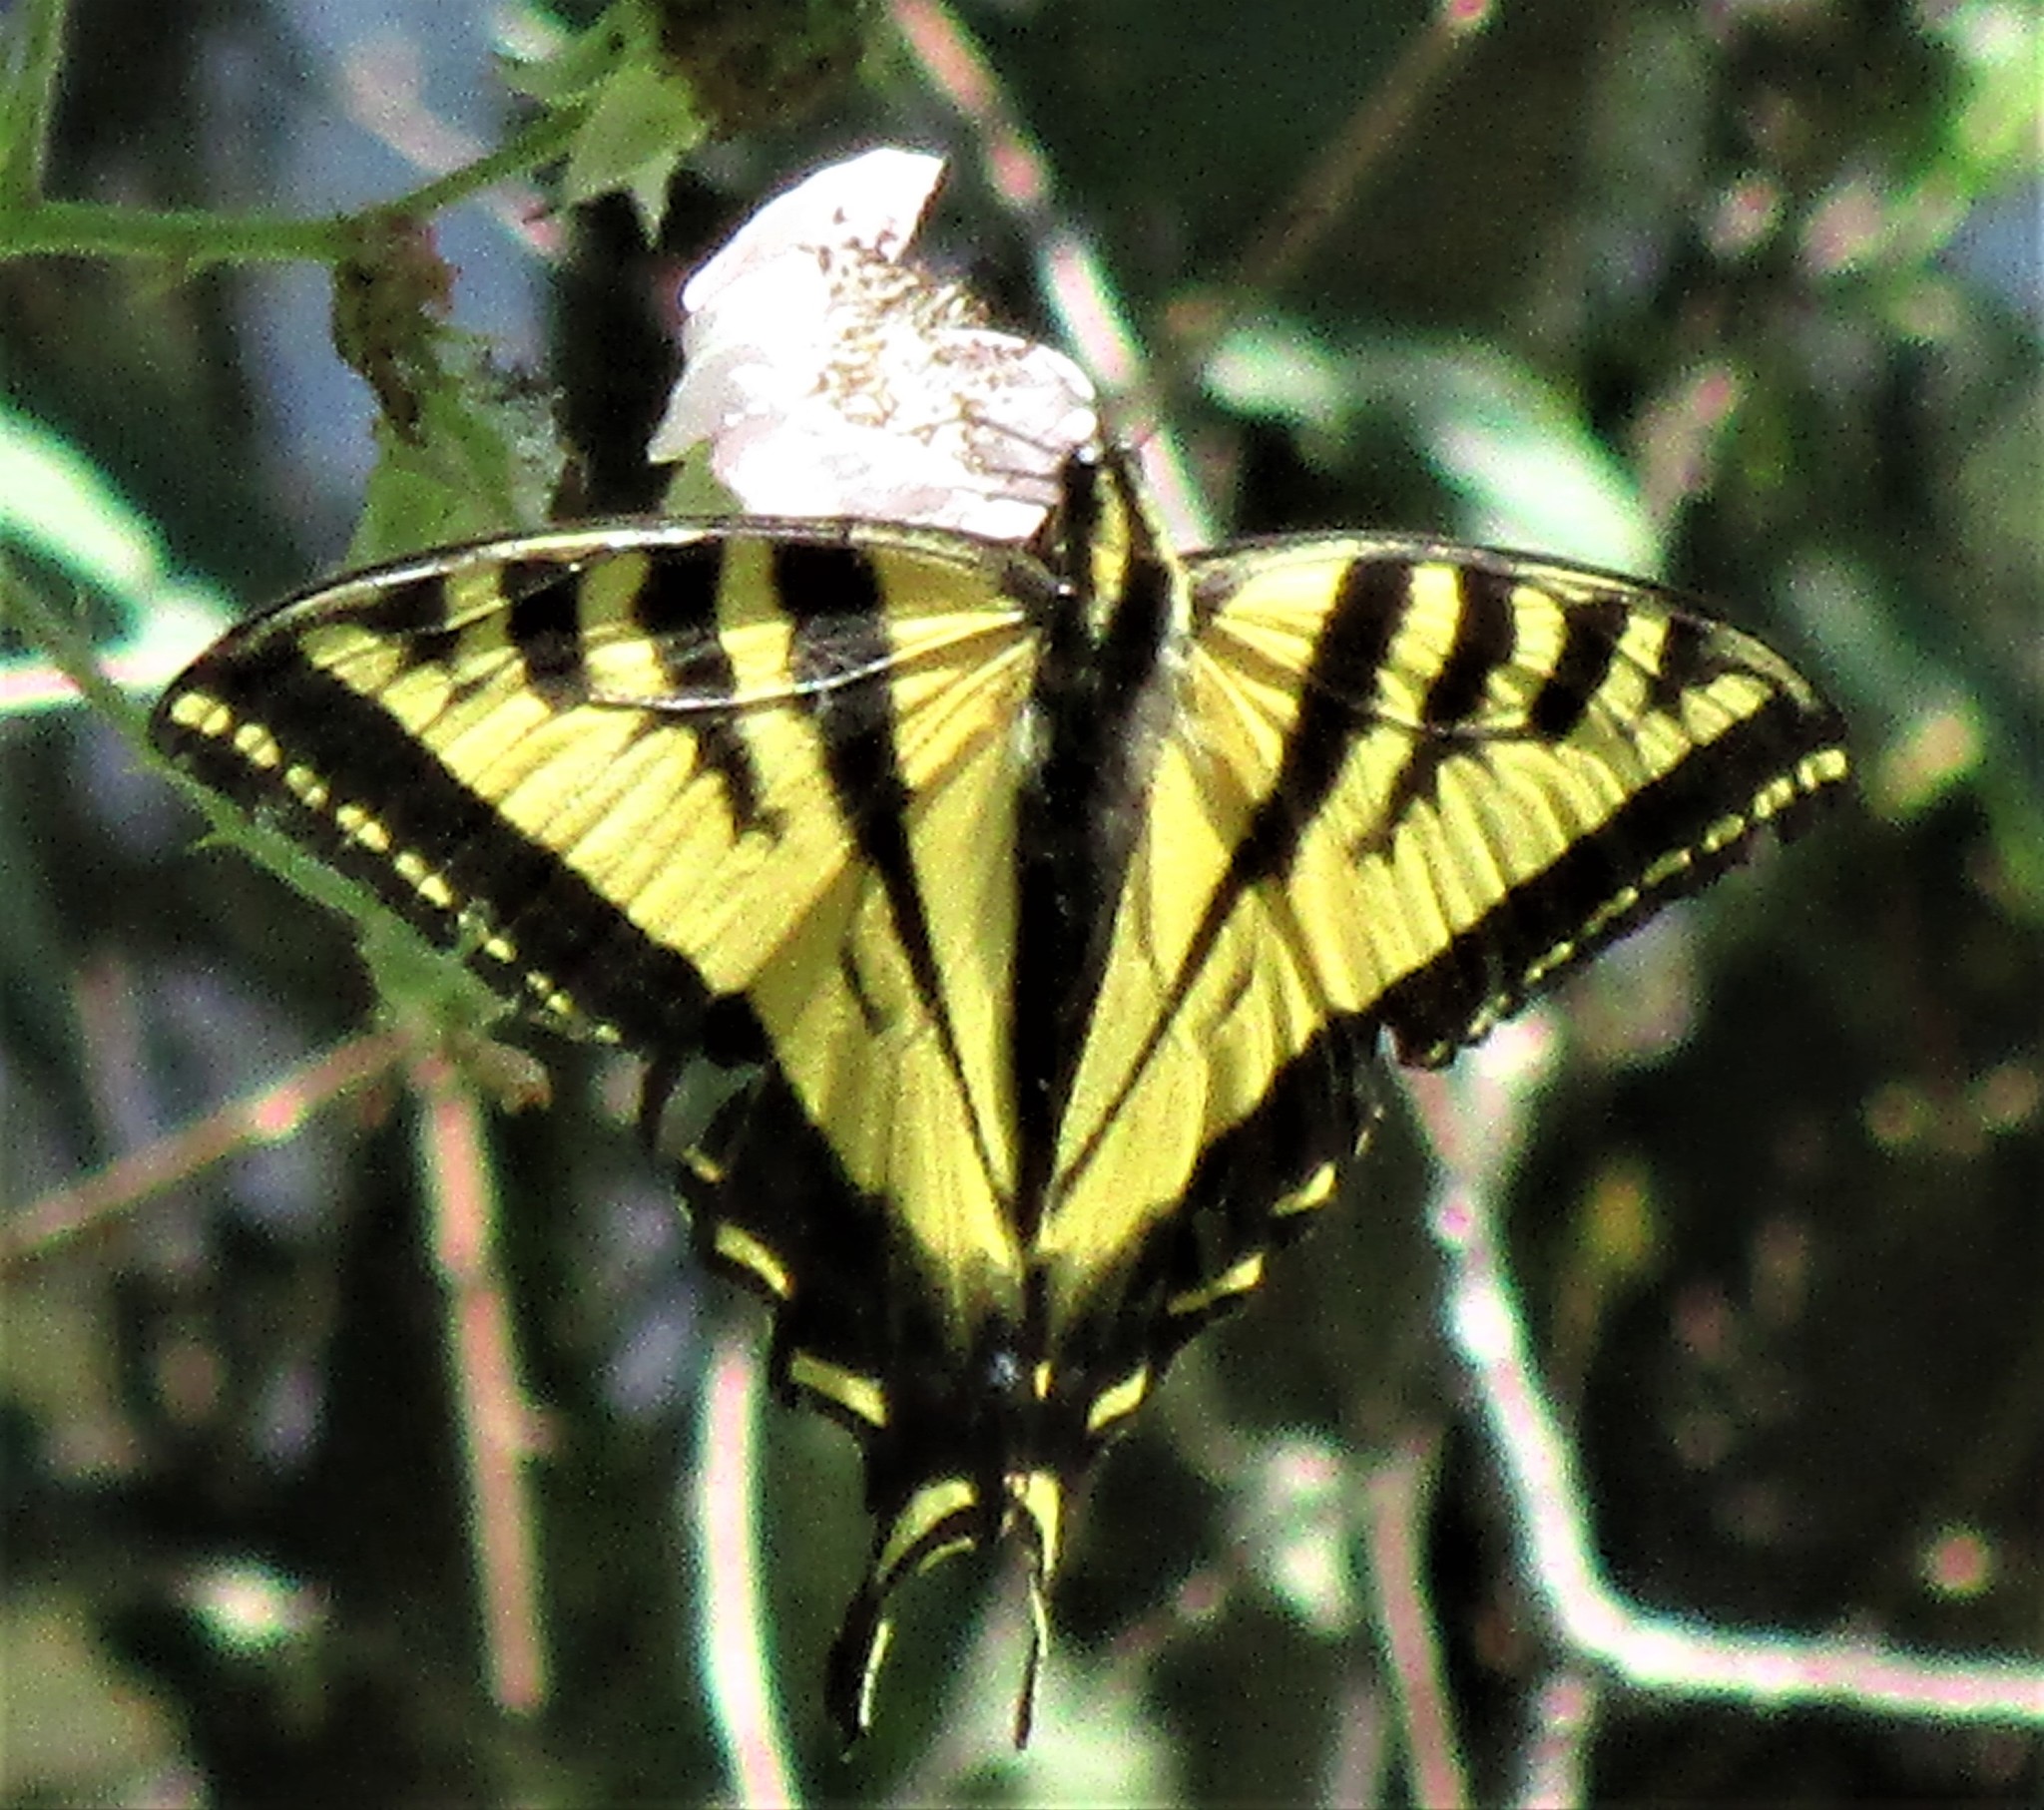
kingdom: Animalia
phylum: Arthropoda
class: Insecta
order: Lepidoptera
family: Papilionidae
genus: Papilio
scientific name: Papilio rutulus
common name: Western tiger swallowtail
